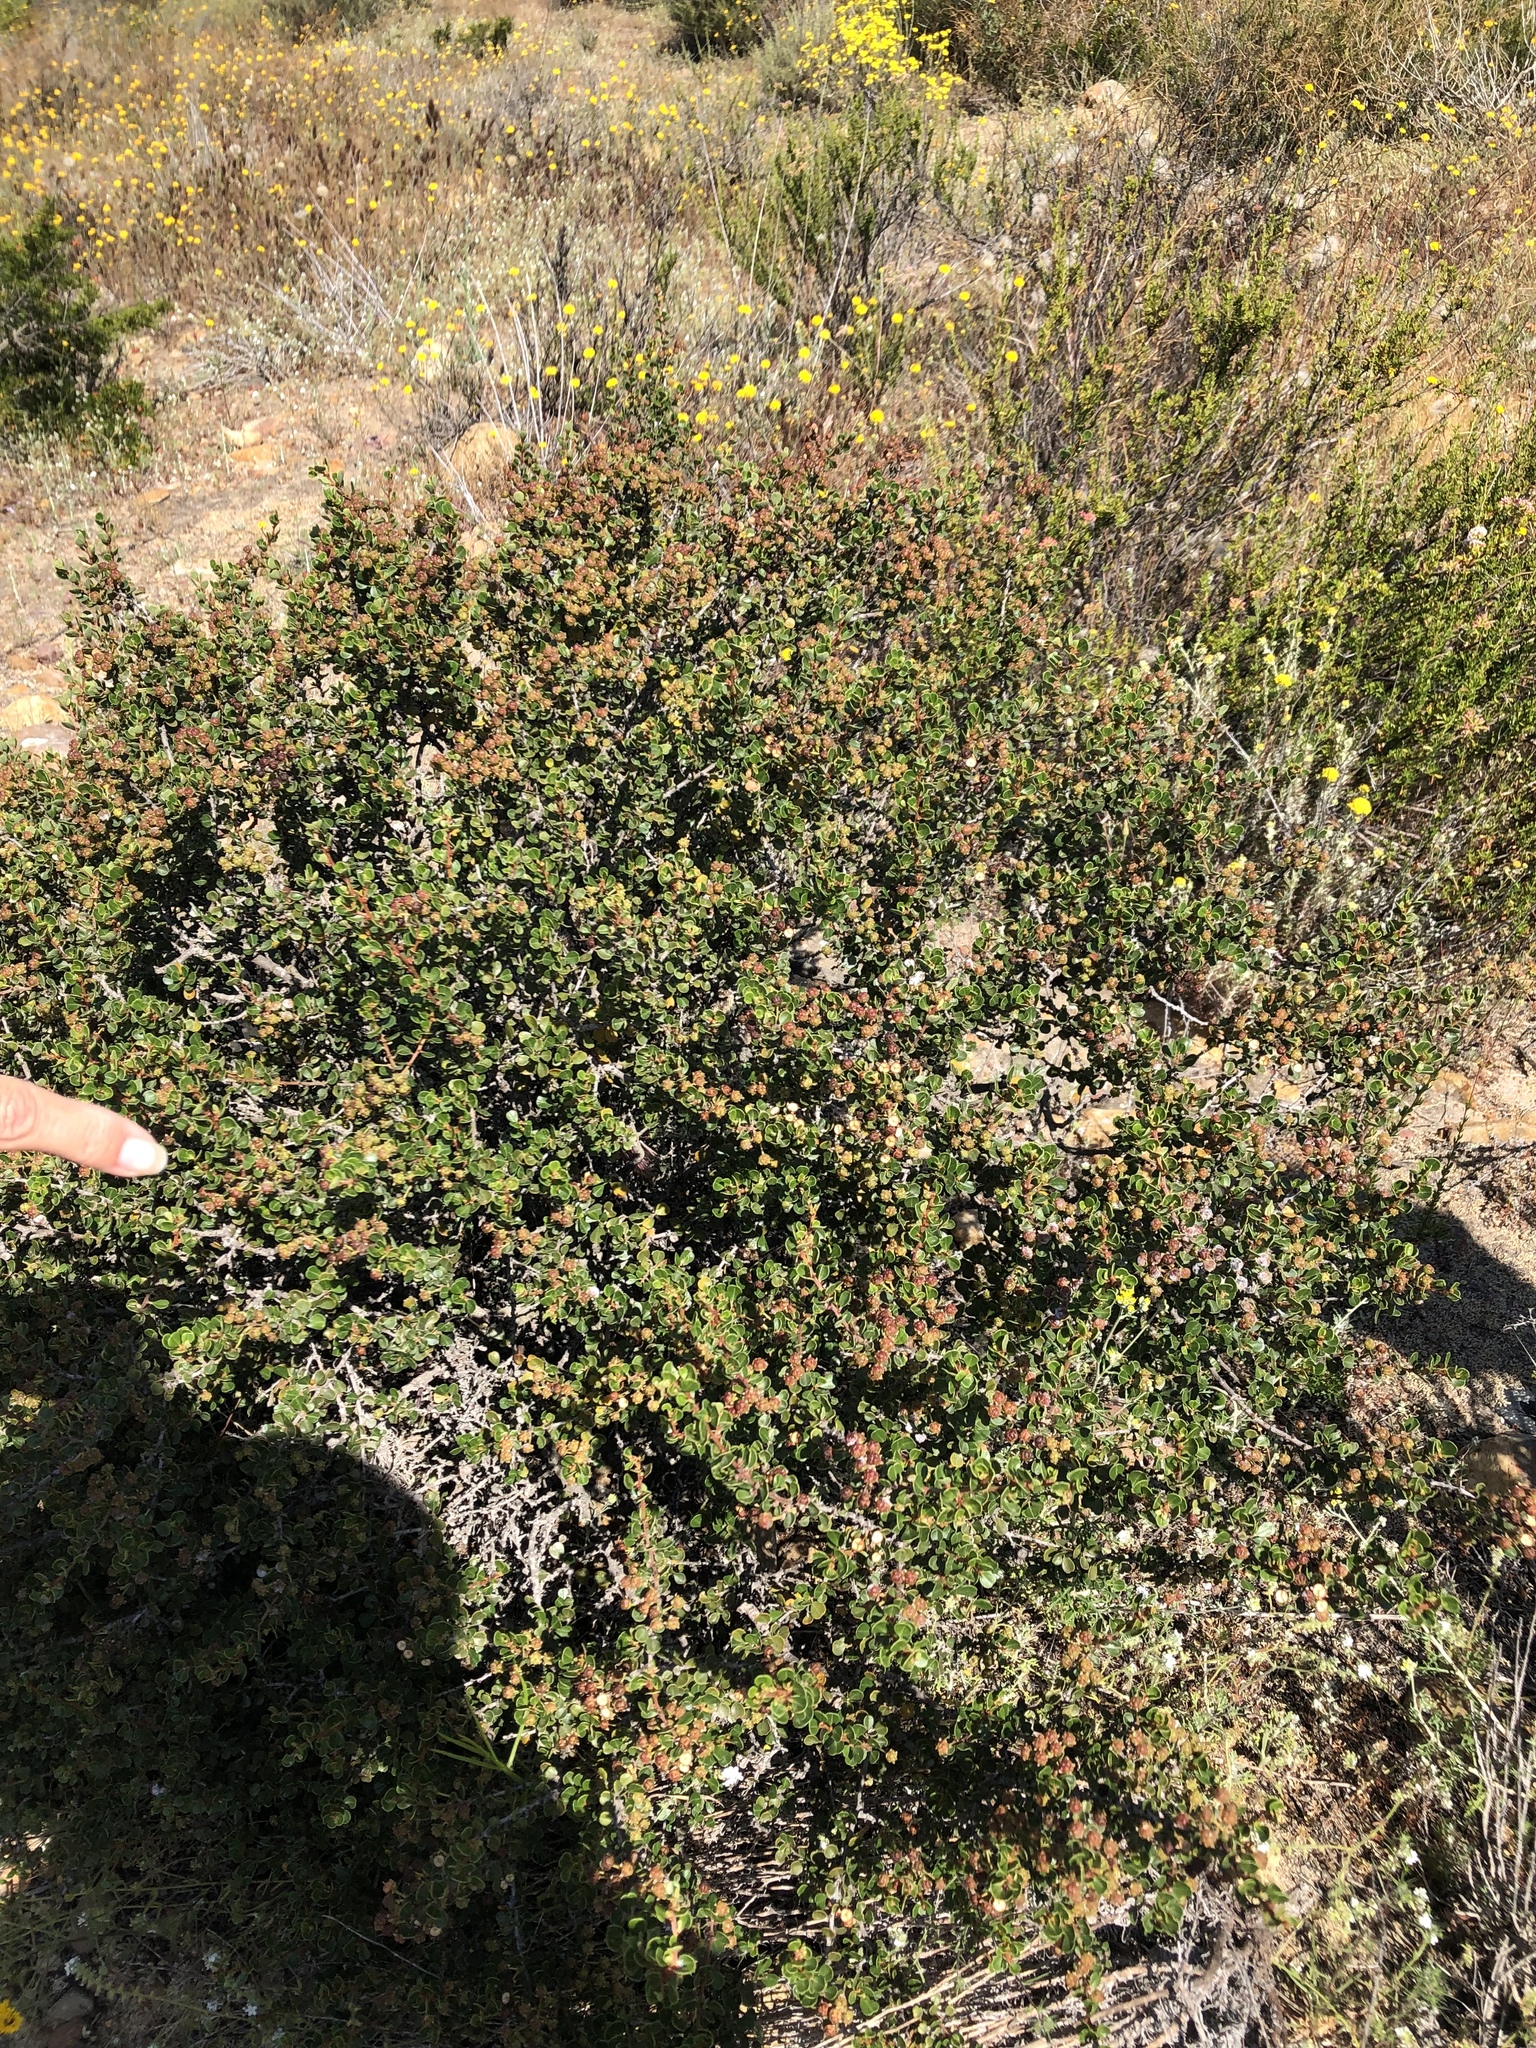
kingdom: Plantae
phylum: Tracheophyta
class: Magnoliopsida
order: Rosales
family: Rhamnaceae
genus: Ceanothus
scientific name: Ceanothus verrucosus
